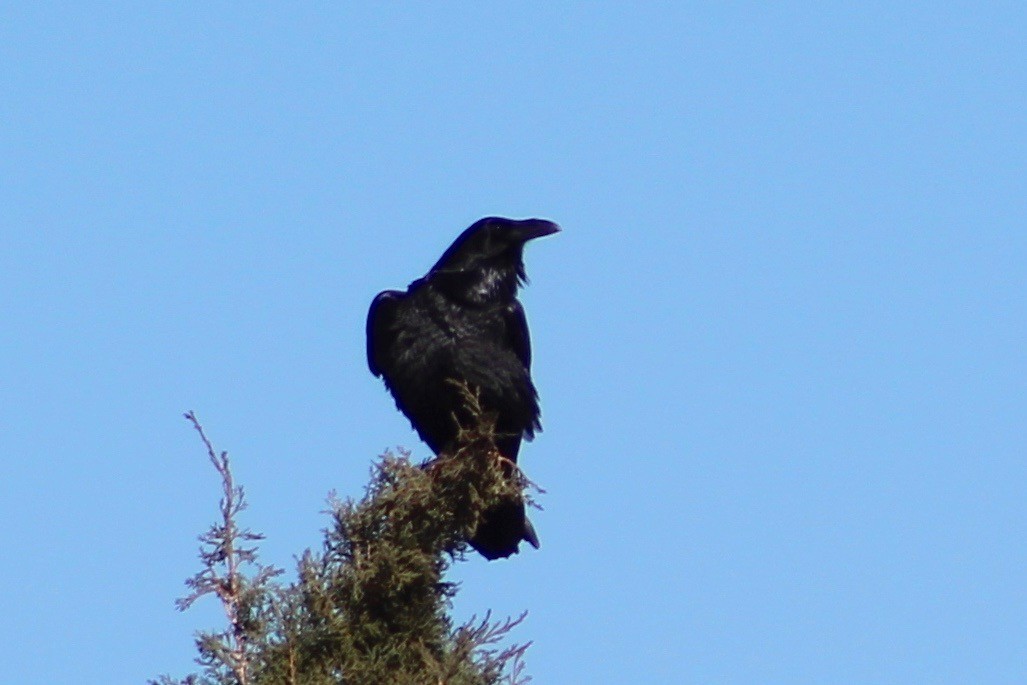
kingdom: Animalia
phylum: Chordata
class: Aves
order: Passeriformes
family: Corvidae
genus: Corvus
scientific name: Corvus cryptoleucus
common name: Chihuahuan raven
